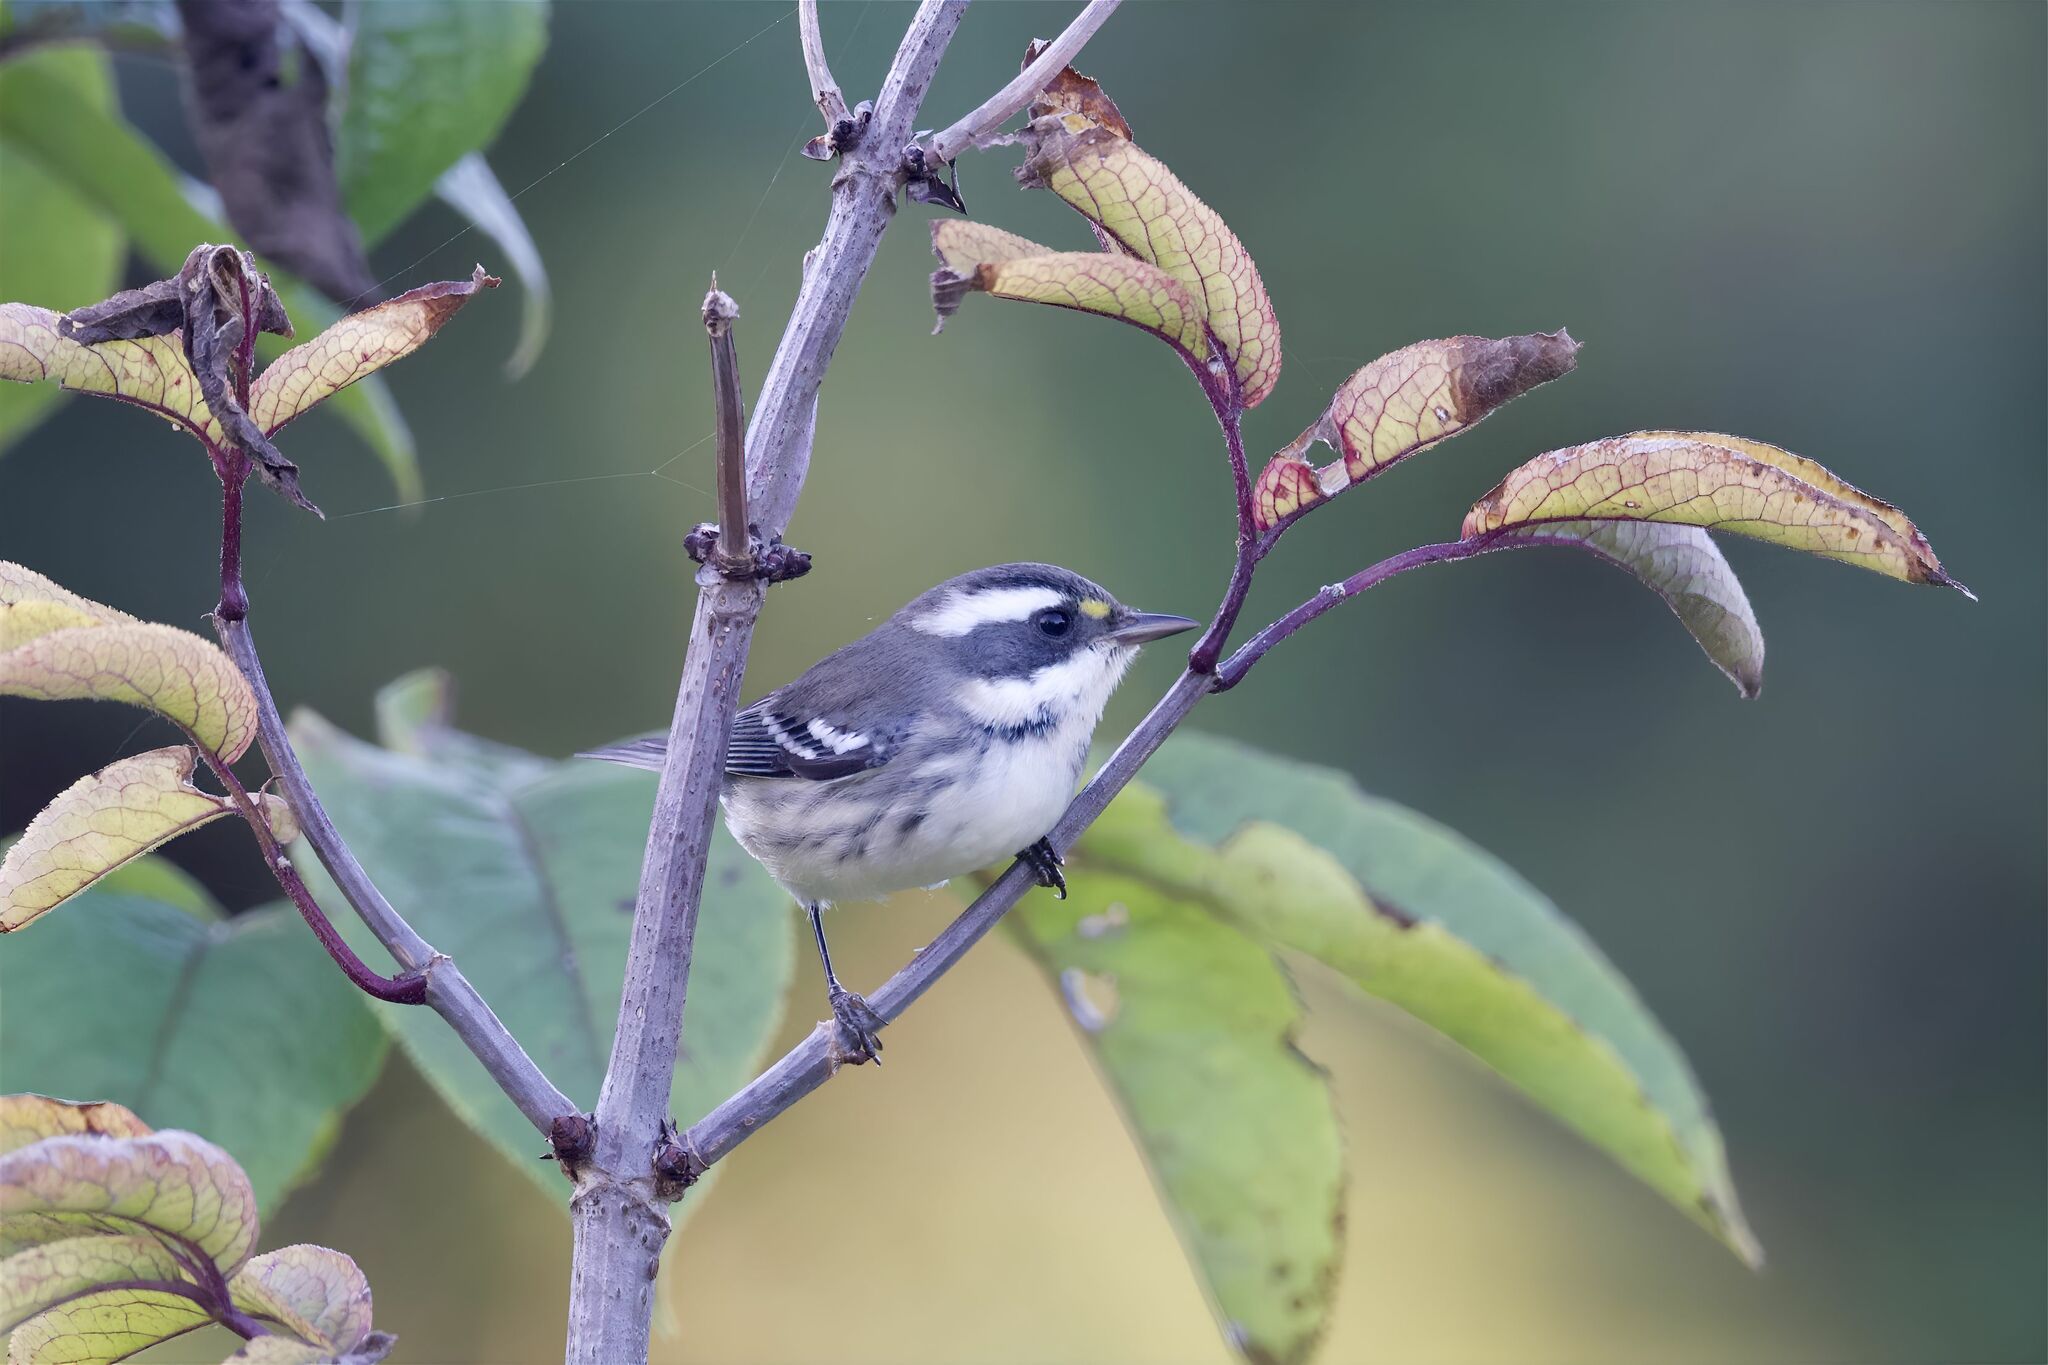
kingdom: Animalia
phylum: Chordata
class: Aves
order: Passeriformes
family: Parulidae
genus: Setophaga
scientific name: Setophaga nigrescens
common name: Black-throated gray warbler
